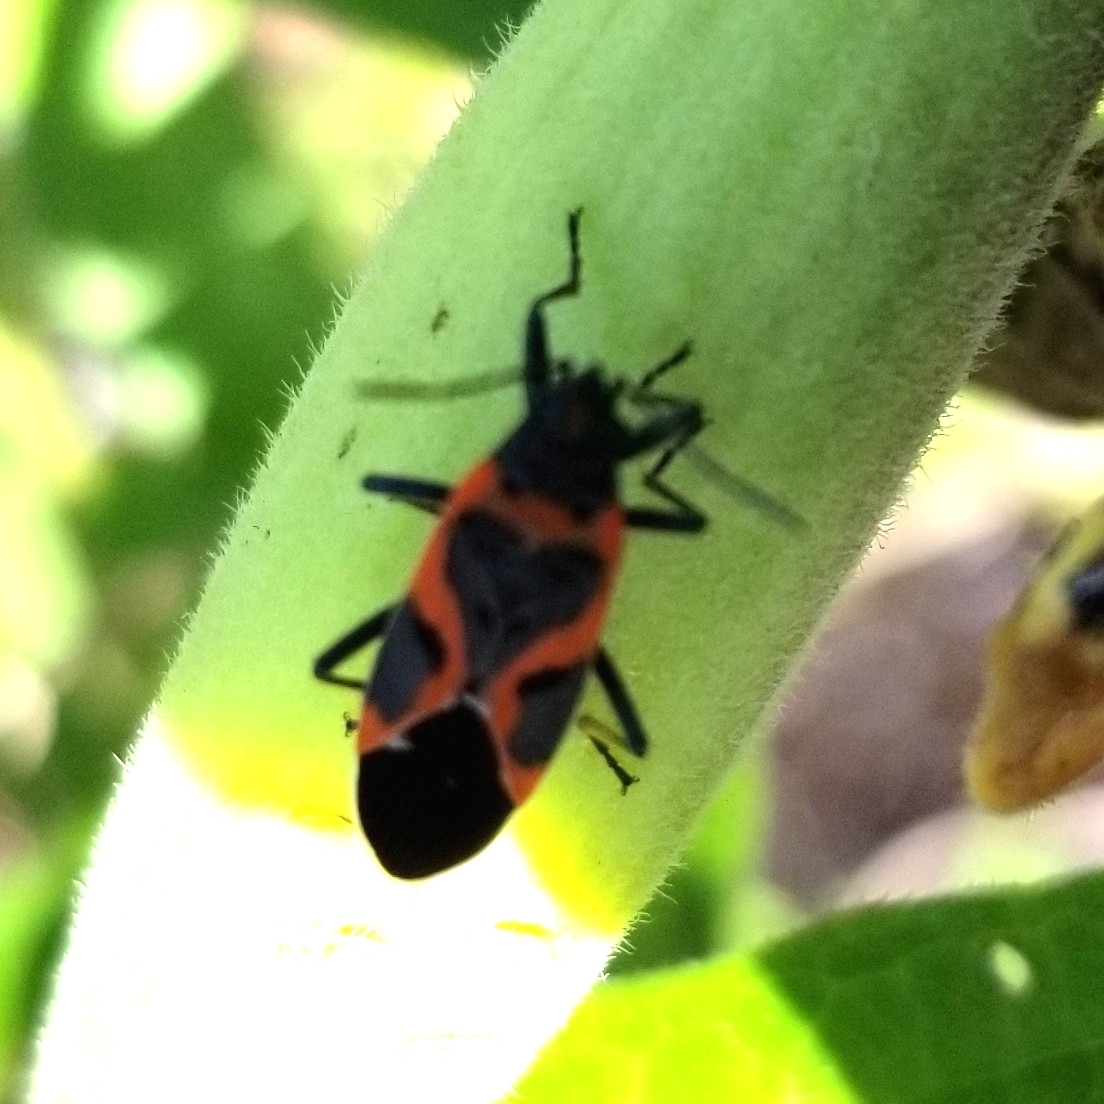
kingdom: Animalia
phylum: Arthropoda
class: Insecta
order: Hemiptera
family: Lygaeidae
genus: Lygaeus
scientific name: Lygaeus kalmii
